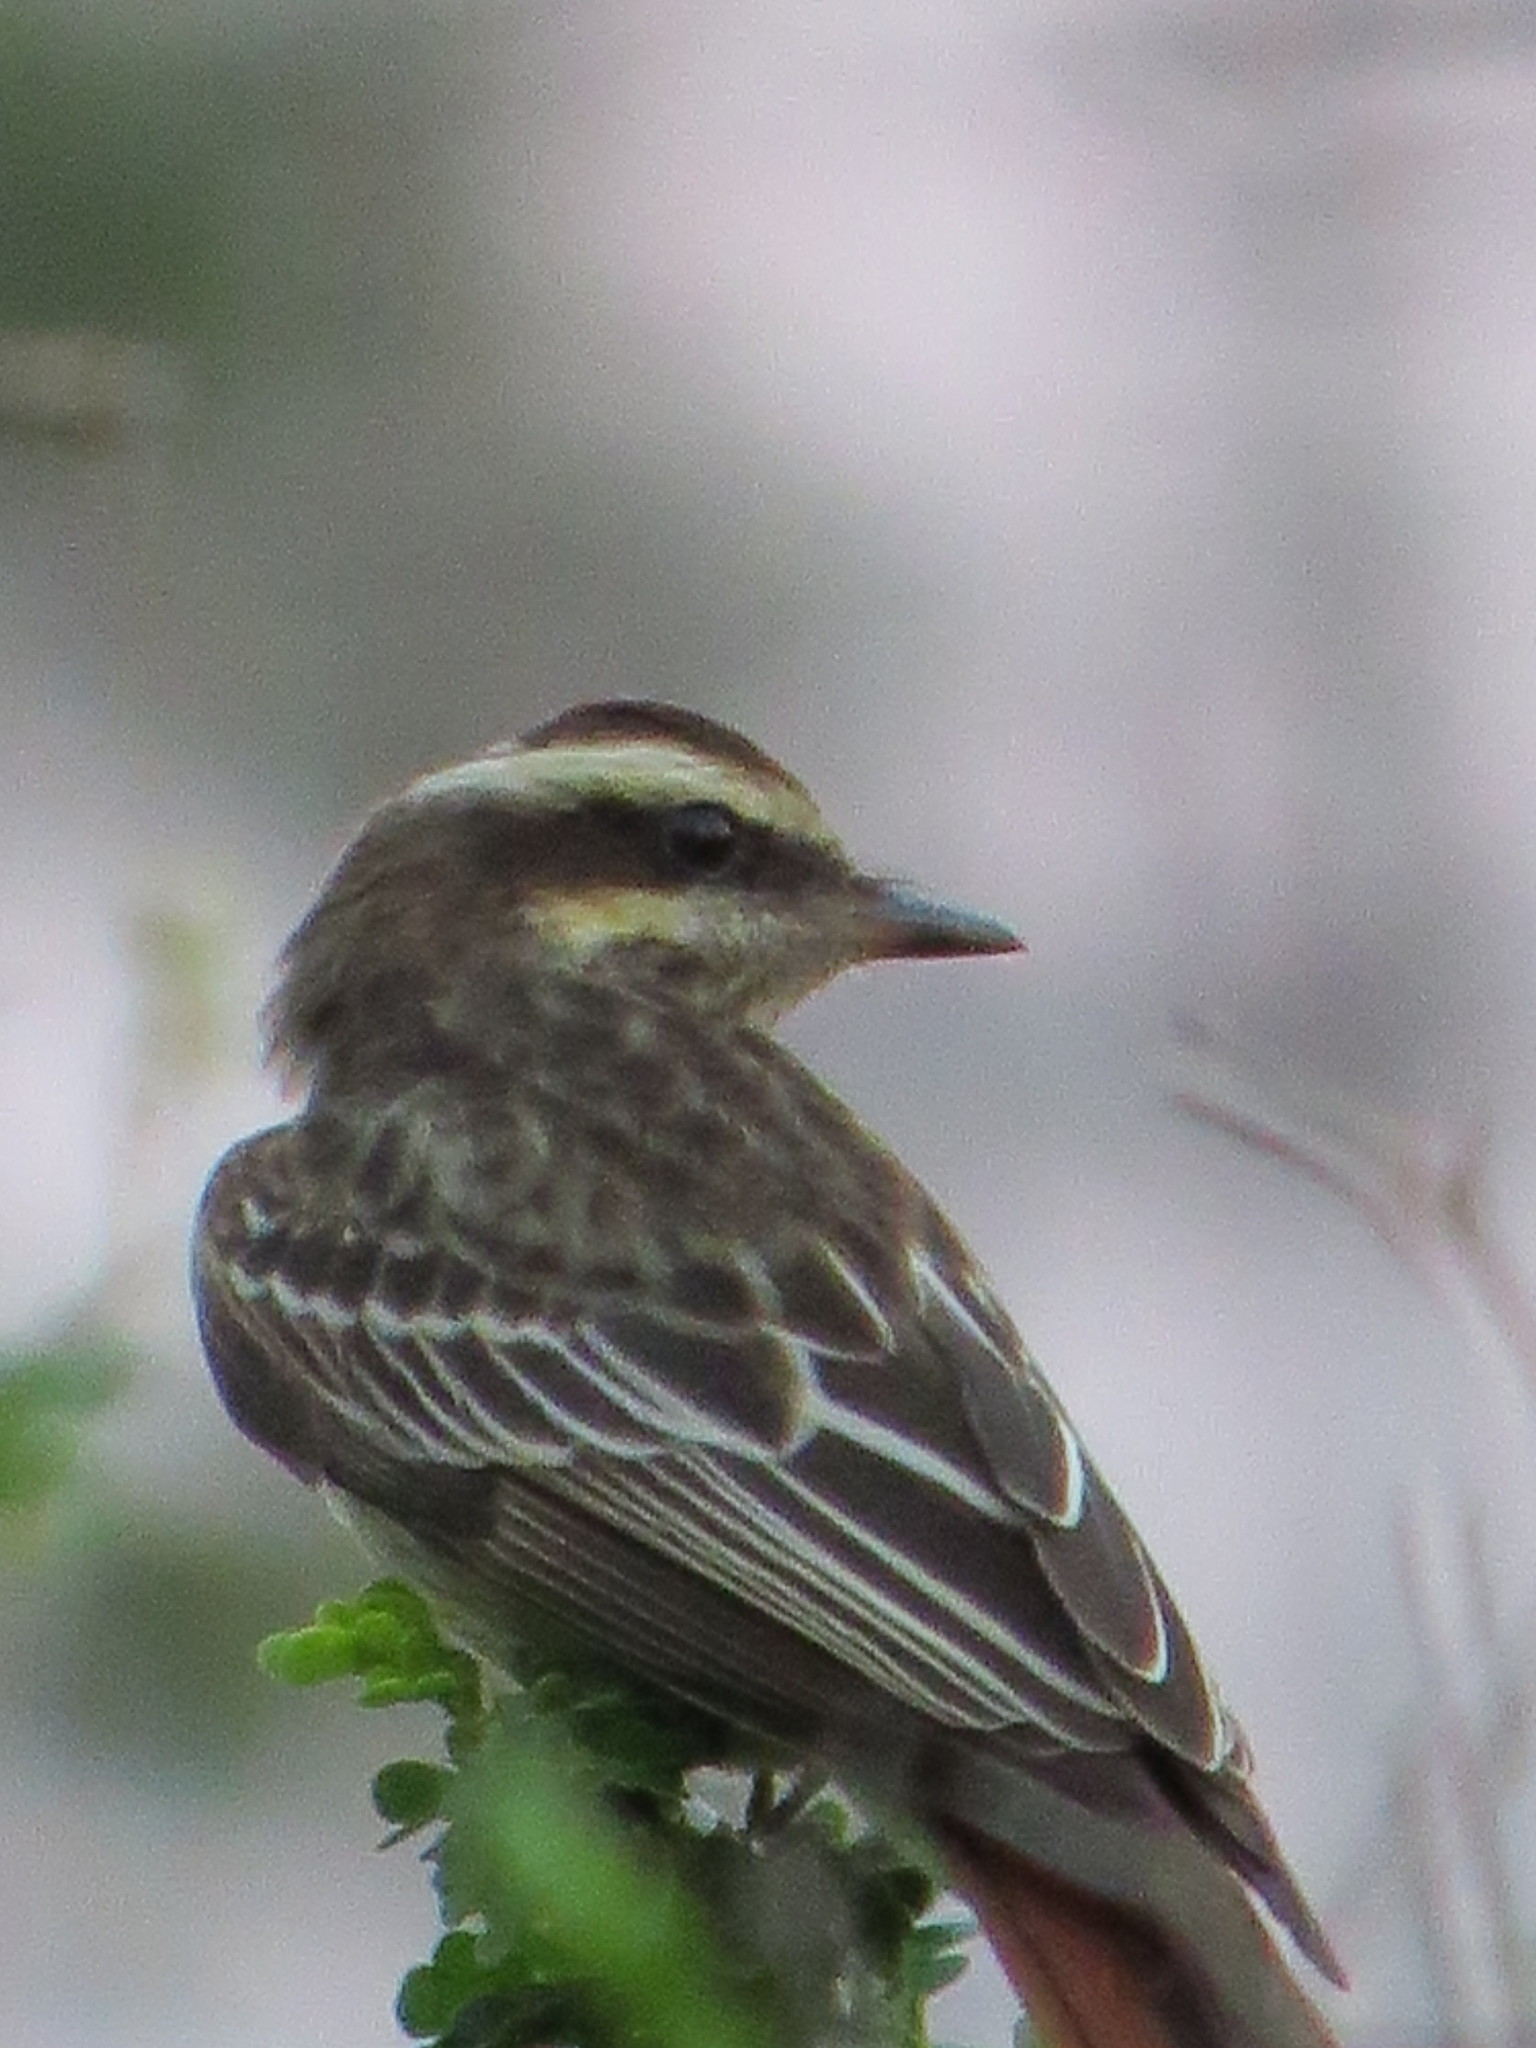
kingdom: Animalia
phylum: Chordata
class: Aves
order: Passeriformes
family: Tyrannidae
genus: Empidonomus
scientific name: Empidonomus varius
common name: Variegated flycatcher
